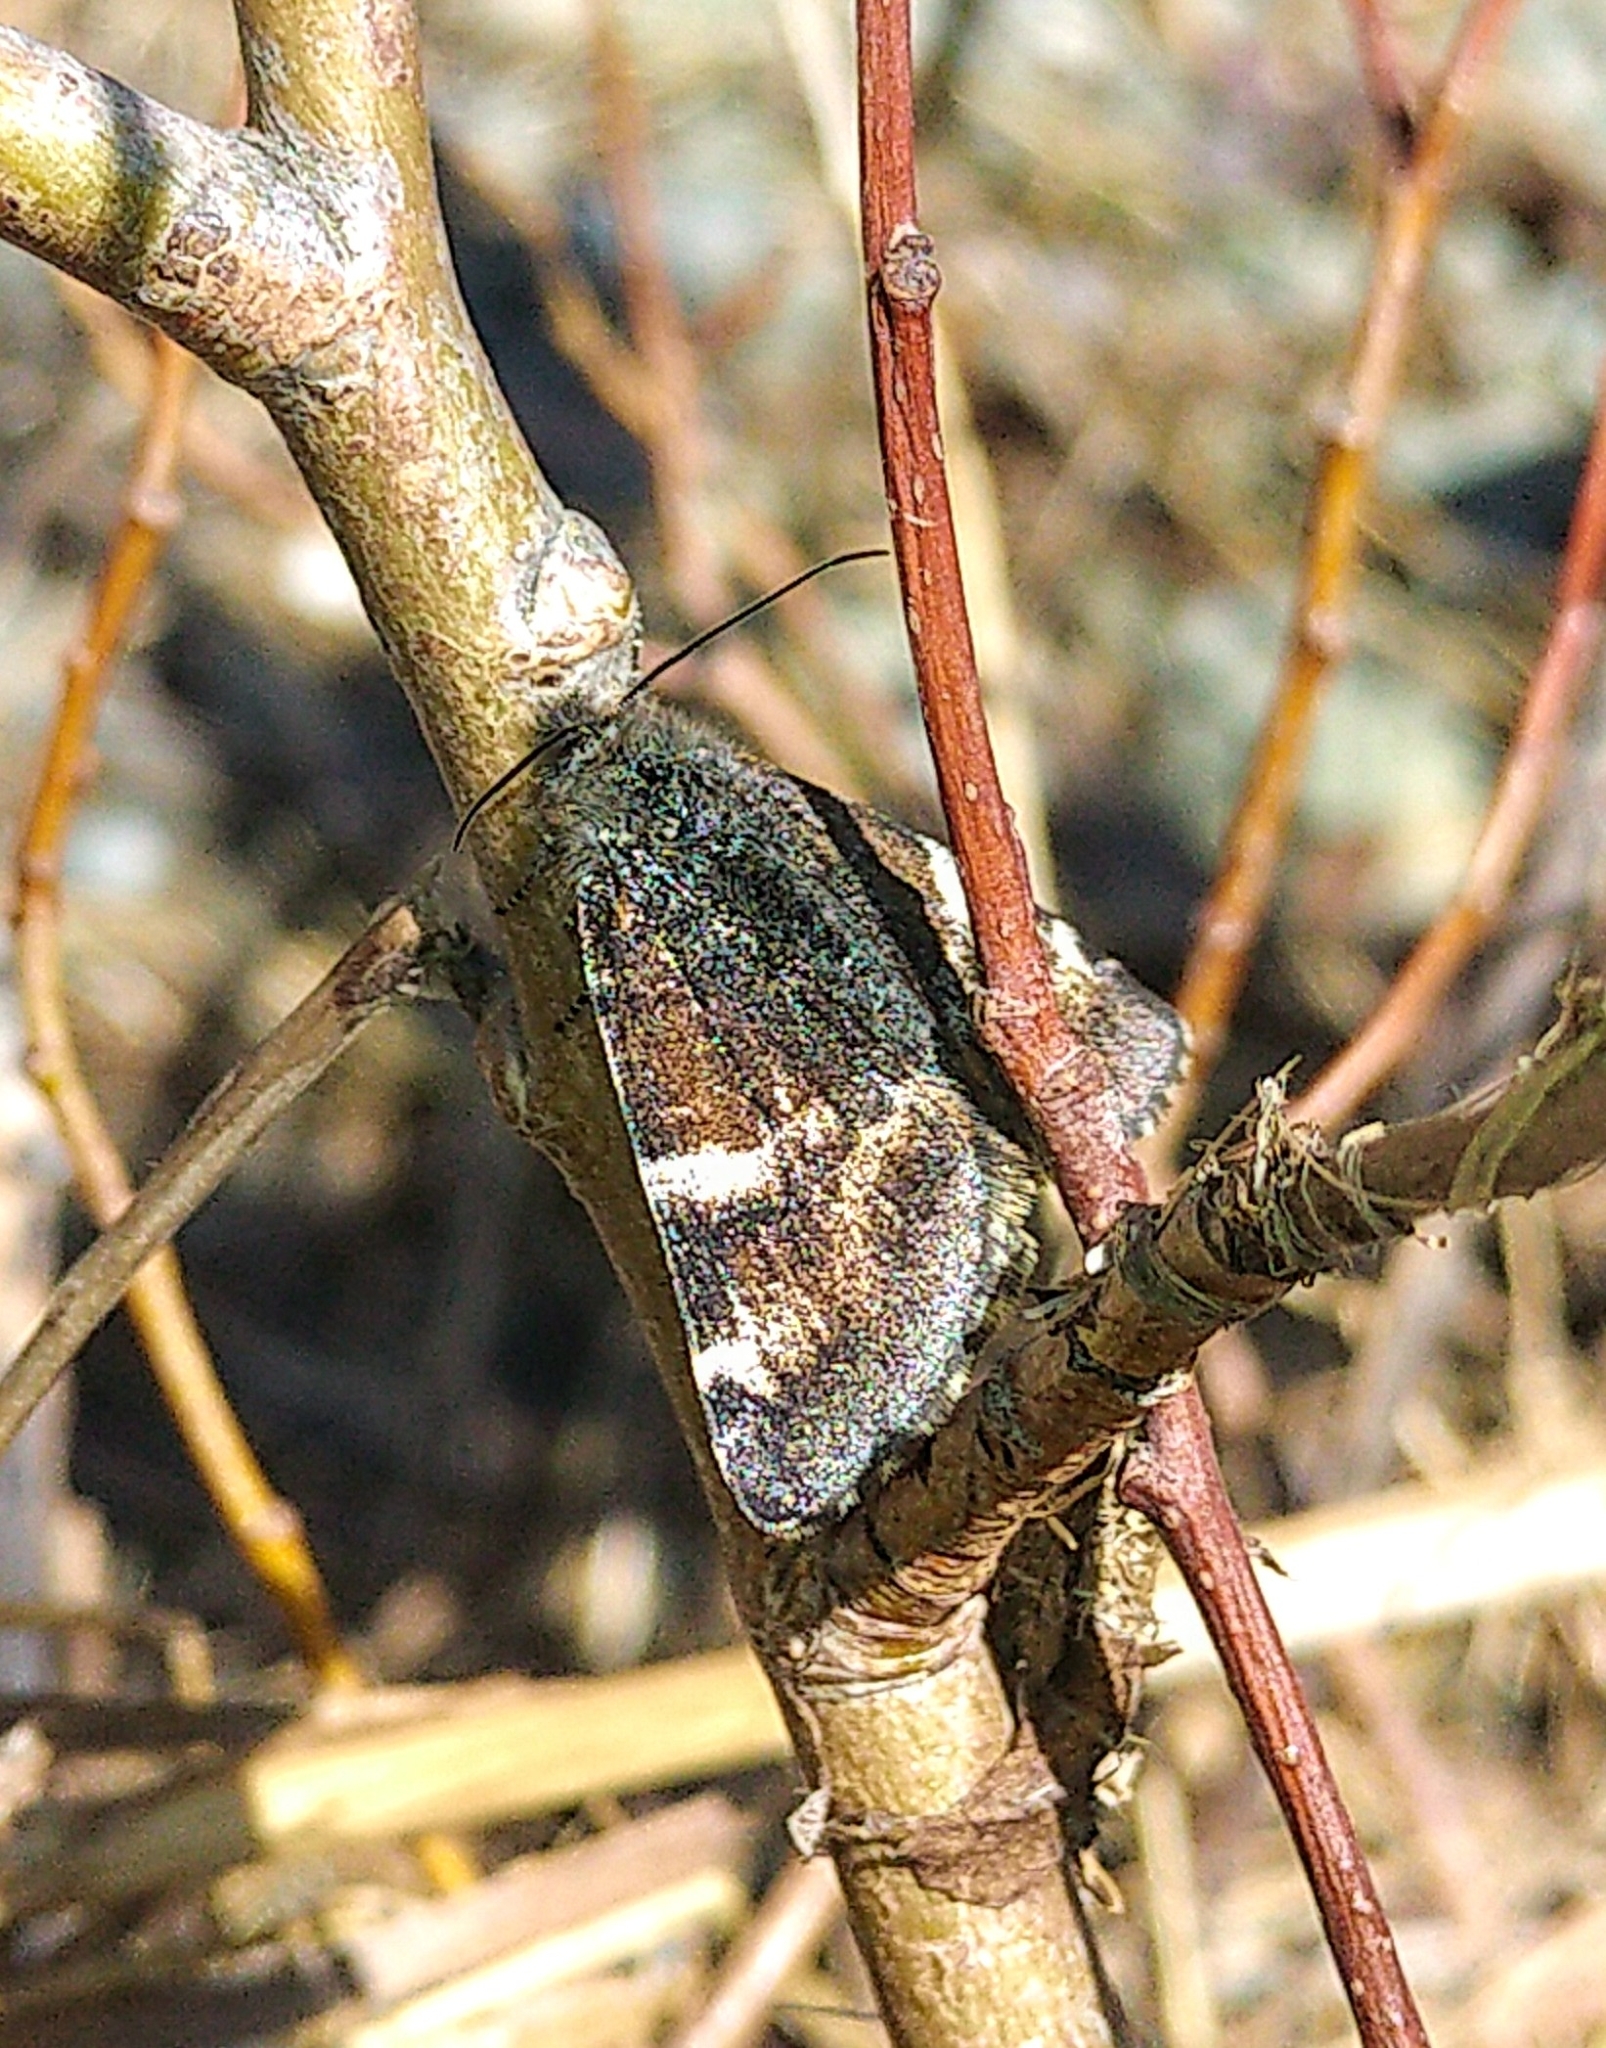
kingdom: Animalia
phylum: Arthropoda
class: Insecta
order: Lepidoptera
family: Geometridae
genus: Archiearis
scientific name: Archiearis infans
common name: First born geometer
